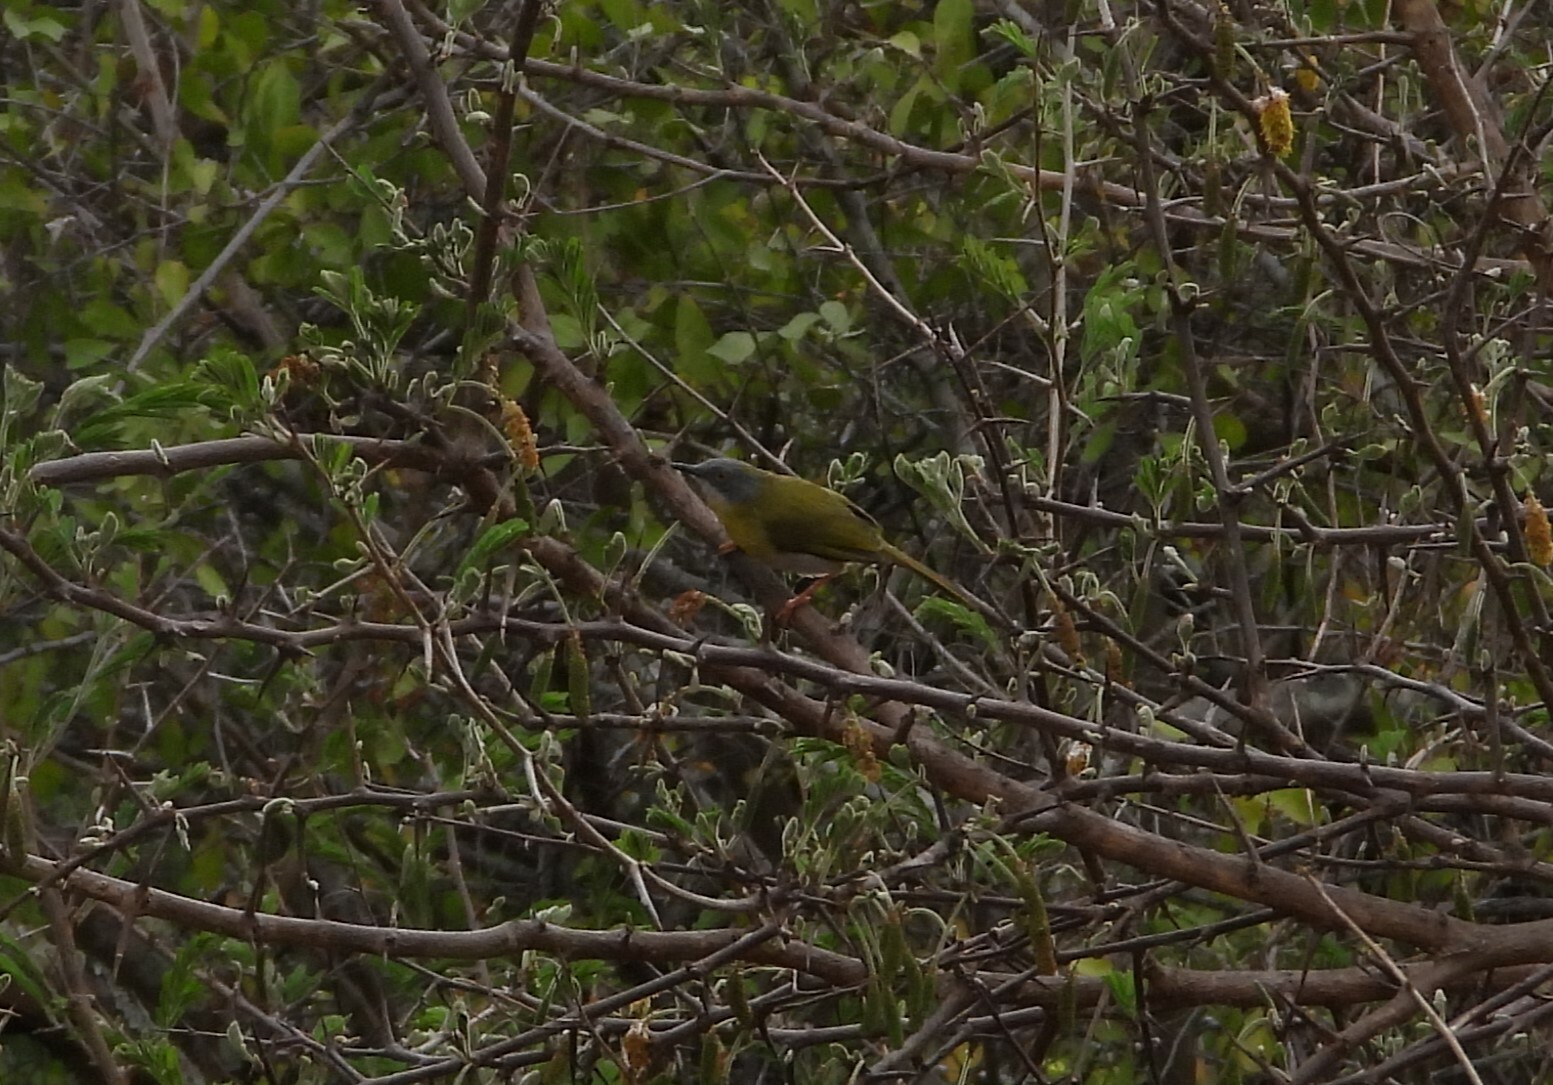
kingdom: Animalia
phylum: Chordata
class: Aves
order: Passeriformes
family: Cisticolidae
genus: Apalis
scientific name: Apalis flavida
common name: Yellow-breasted apalis
